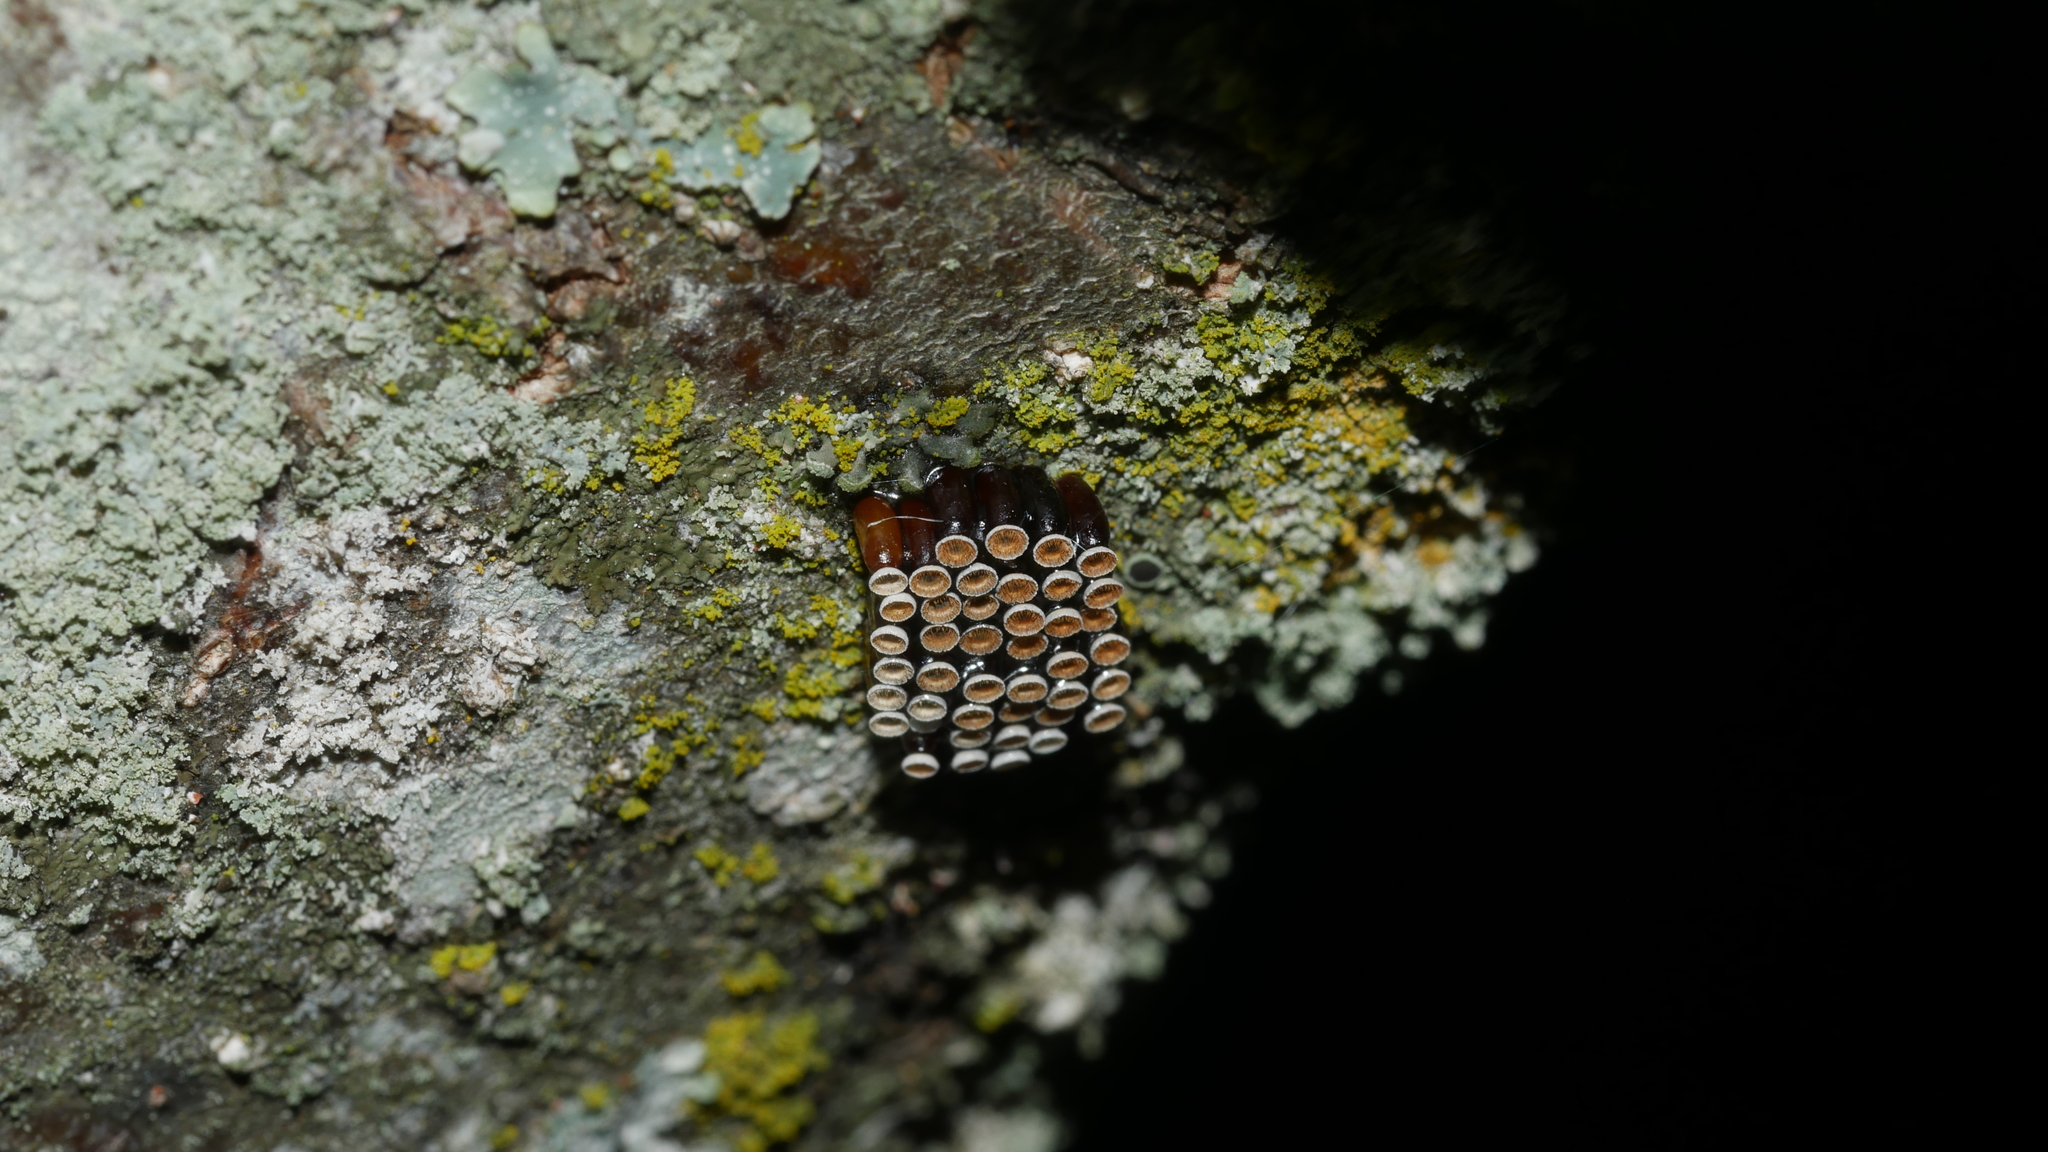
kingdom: Animalia
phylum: Arthropoda
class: Insecta
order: Hemiptera
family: Reduviidae
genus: Arilus
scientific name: Arilus cristatus
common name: North american wheel bug
